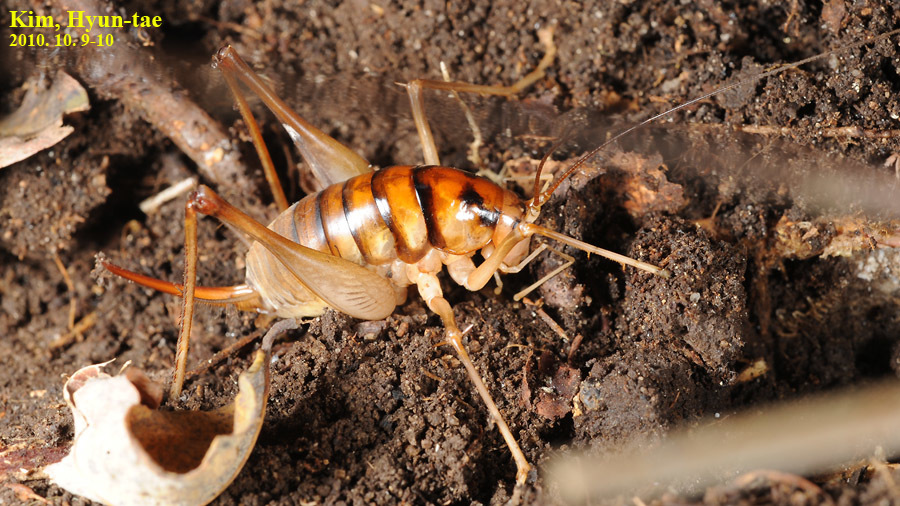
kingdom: Animalia
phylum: Arthropoda
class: Insecta
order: Orthoptera
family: Rhaphidophoridae
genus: Tachycines
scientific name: Tachycines asynamorus
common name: Greenhouse camel cricket
